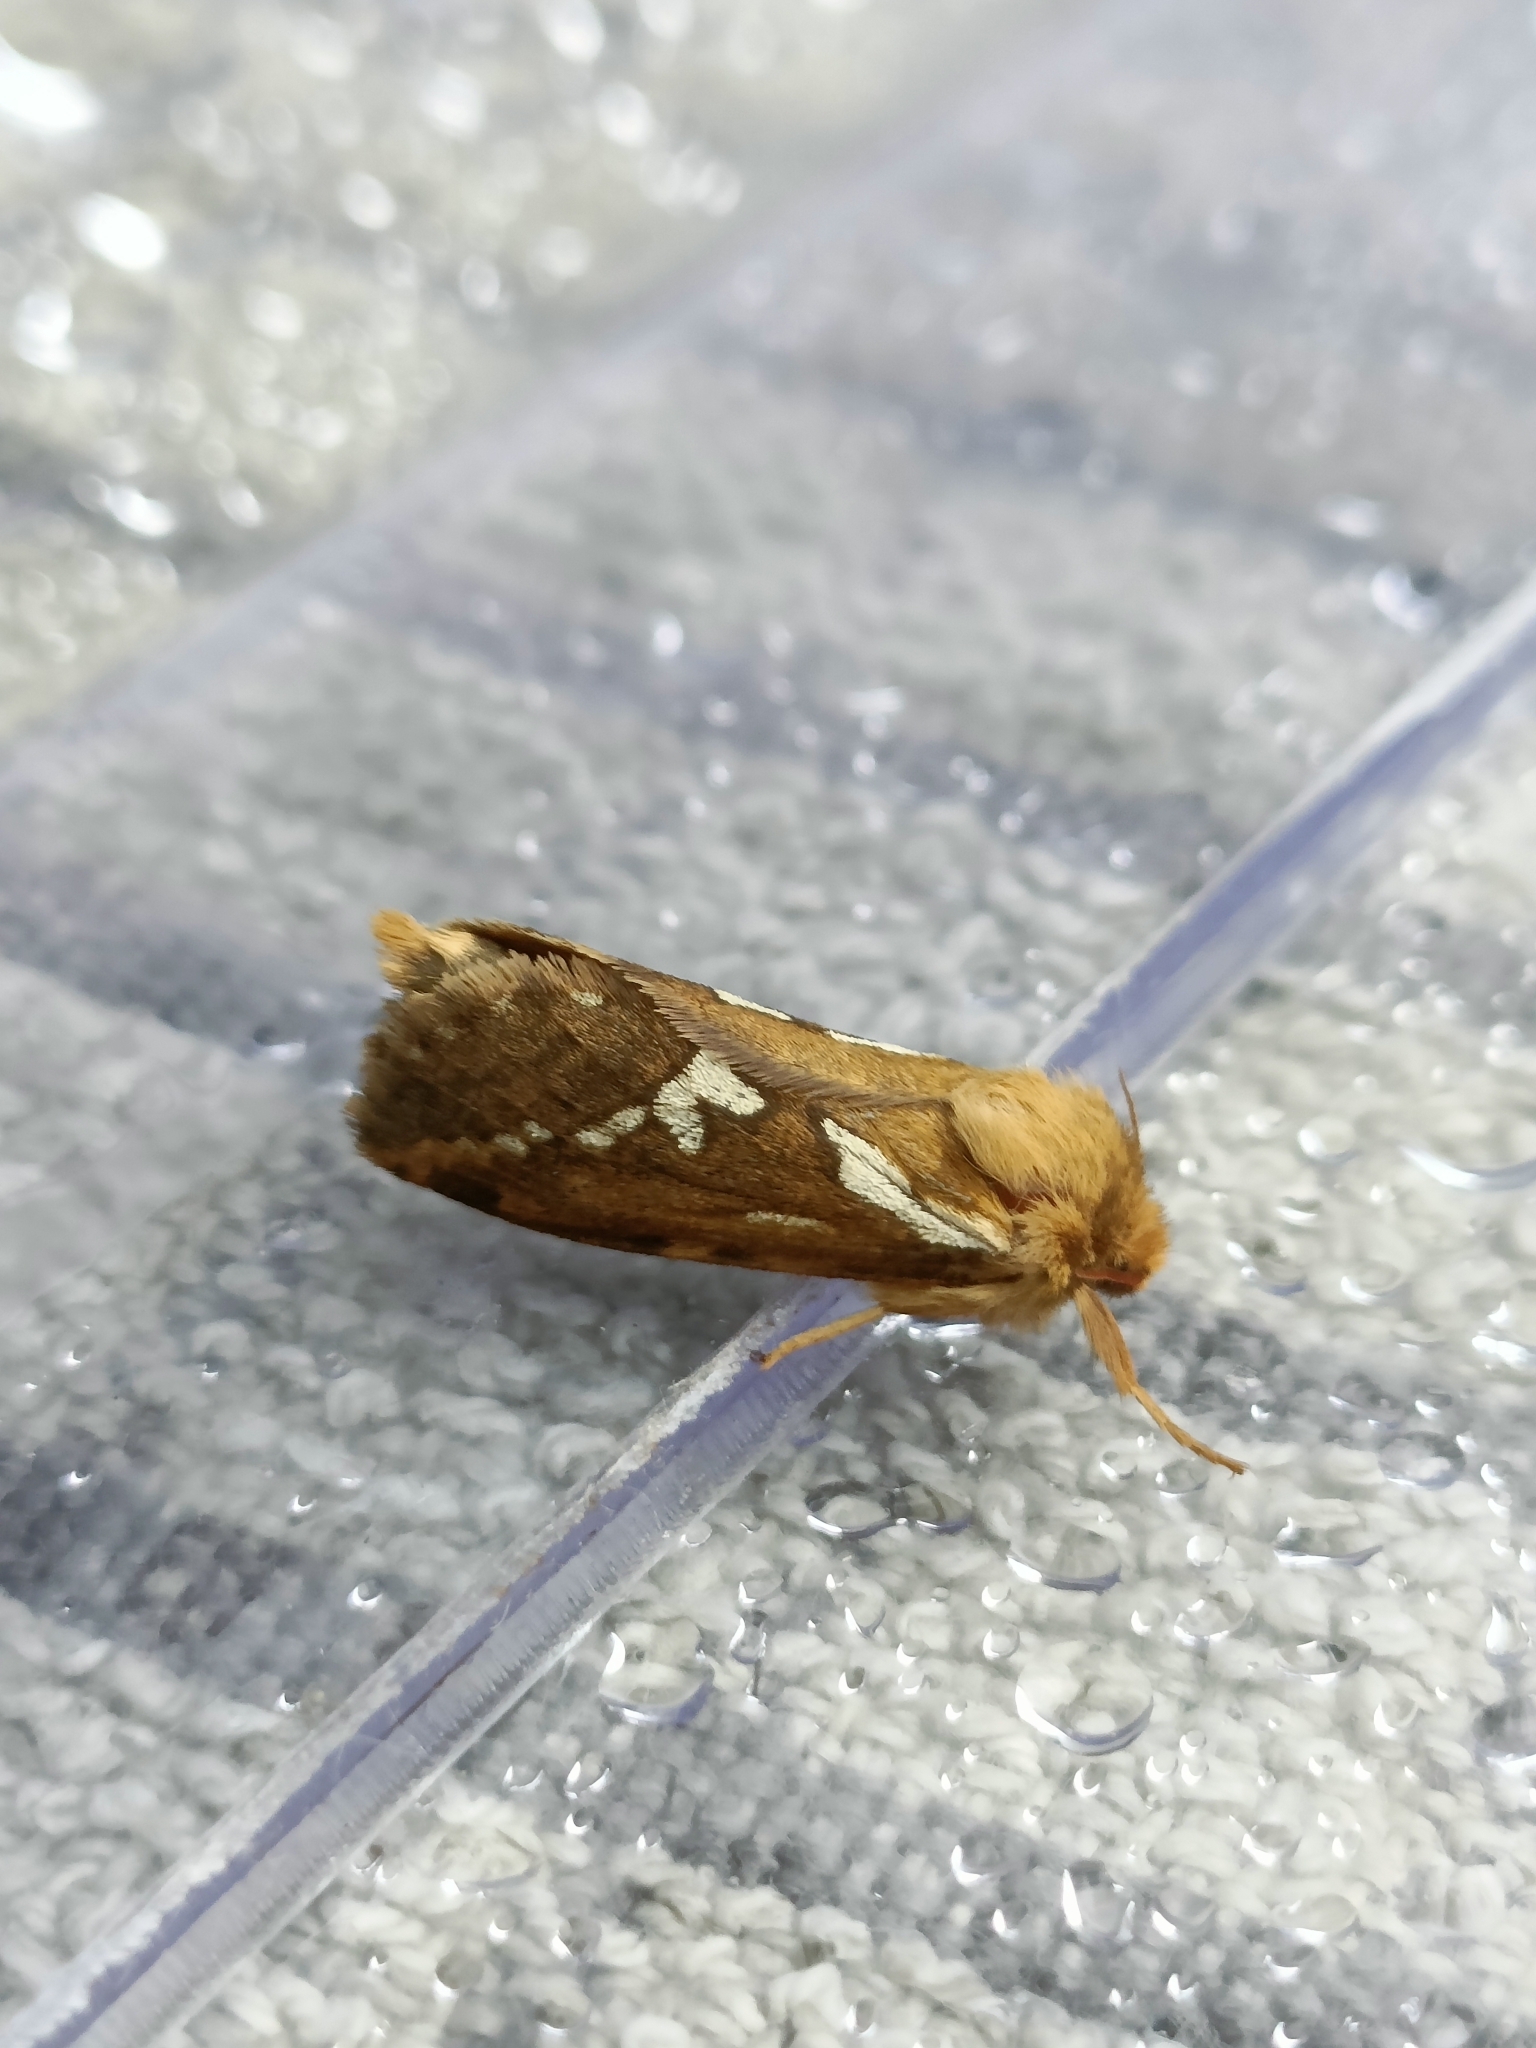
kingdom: Animalia
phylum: Arthropoda
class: Insecta
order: Lepidoptera
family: Hepialidae
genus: Korscheltellus
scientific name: Korscheltellus lupulina
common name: Common swift
